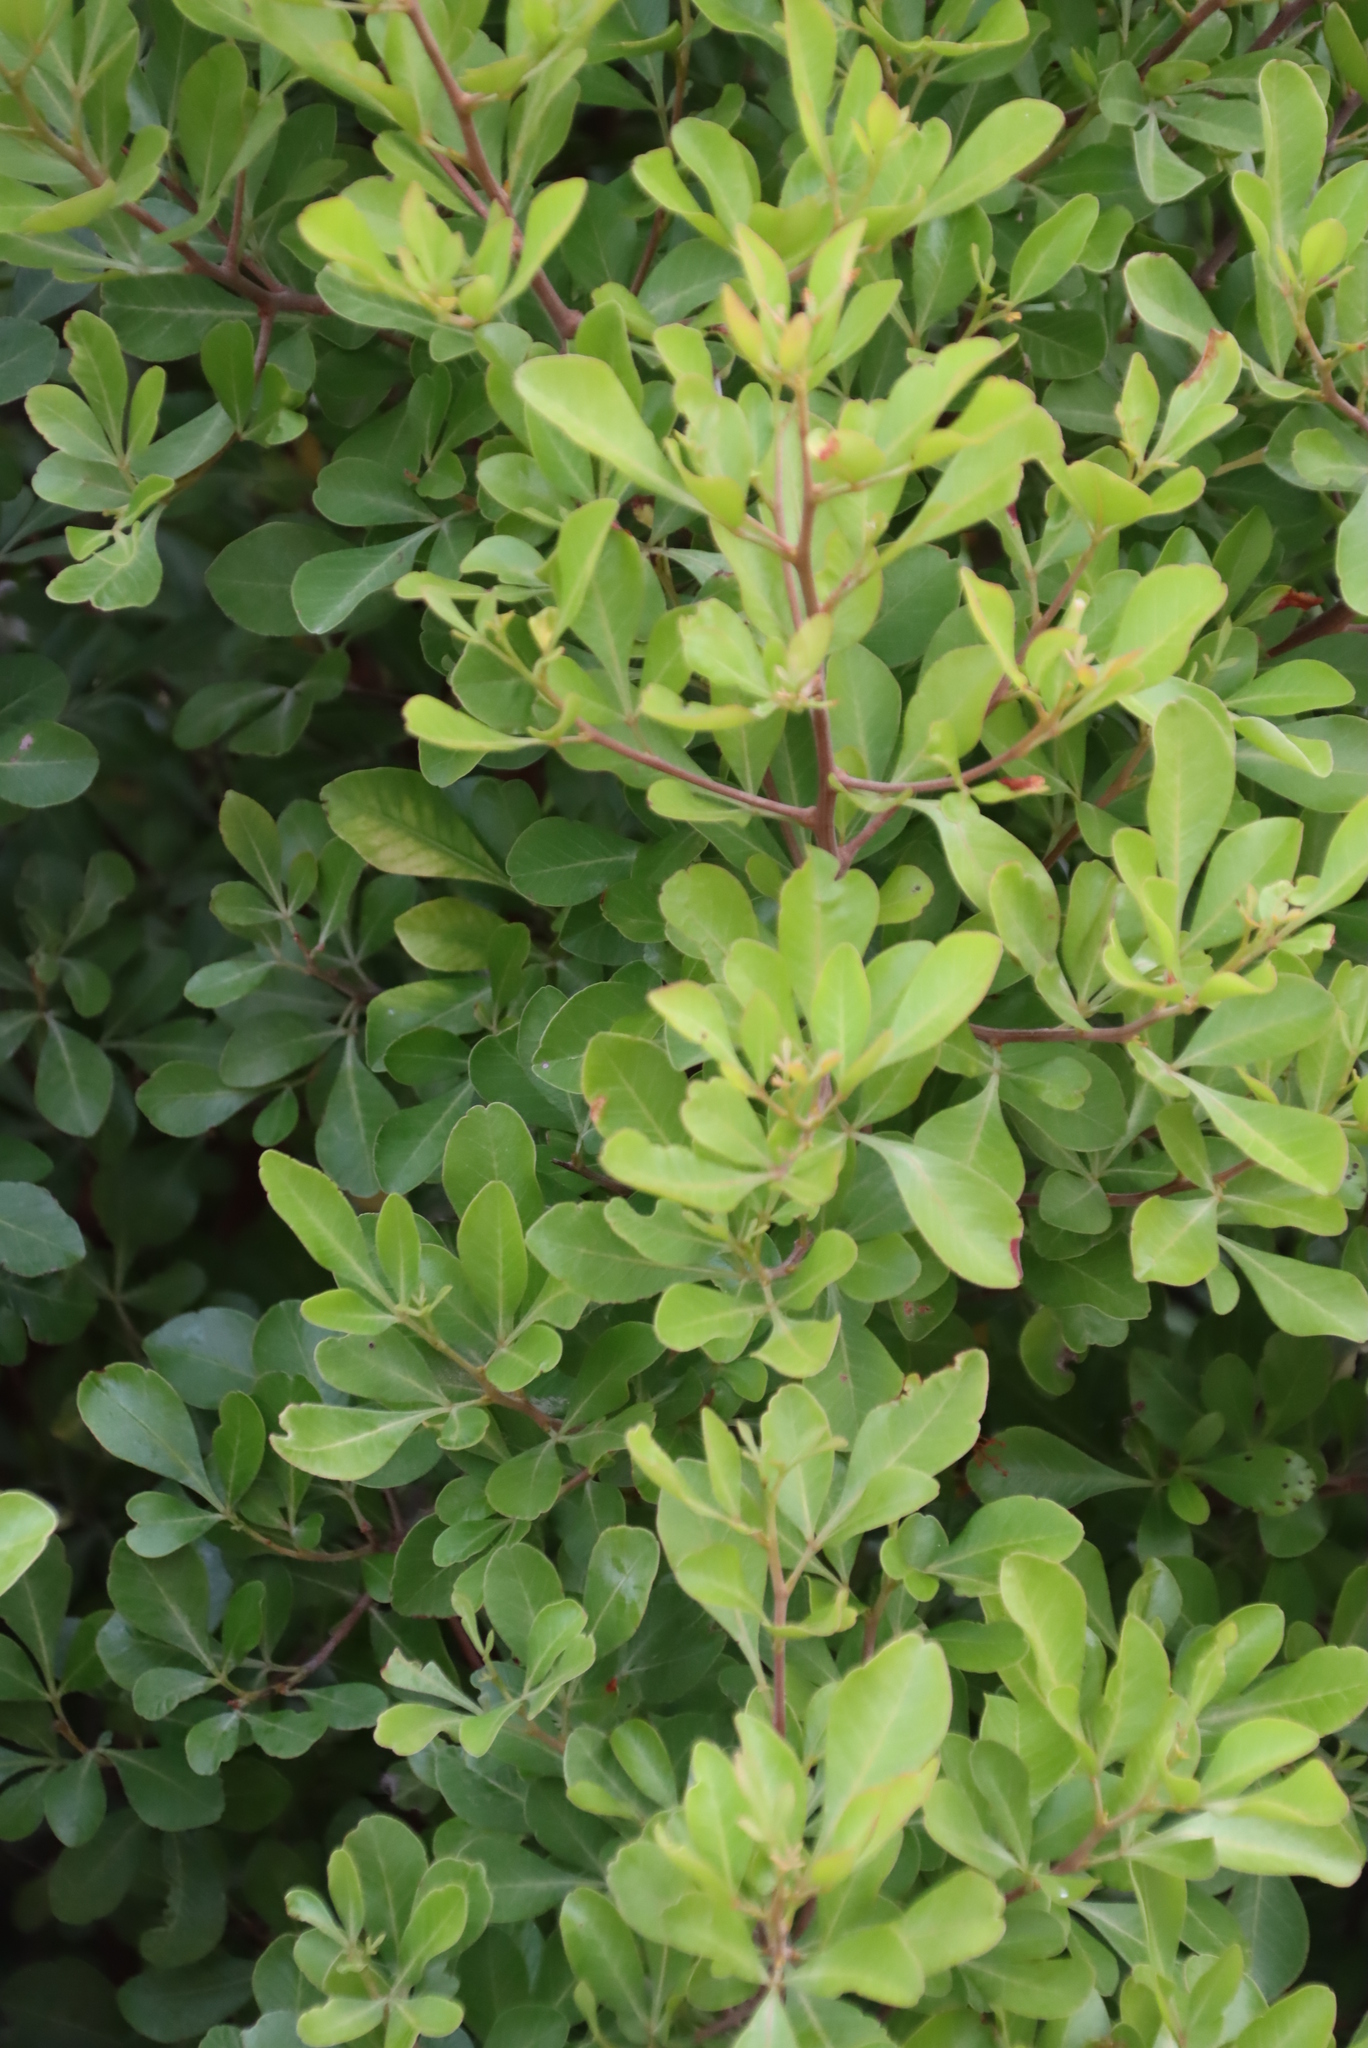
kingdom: Plantae
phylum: Tracheophyta
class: Magnoliopsida
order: Sapindales
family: Anacardiaceae
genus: Searsia
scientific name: Searsia lucida
